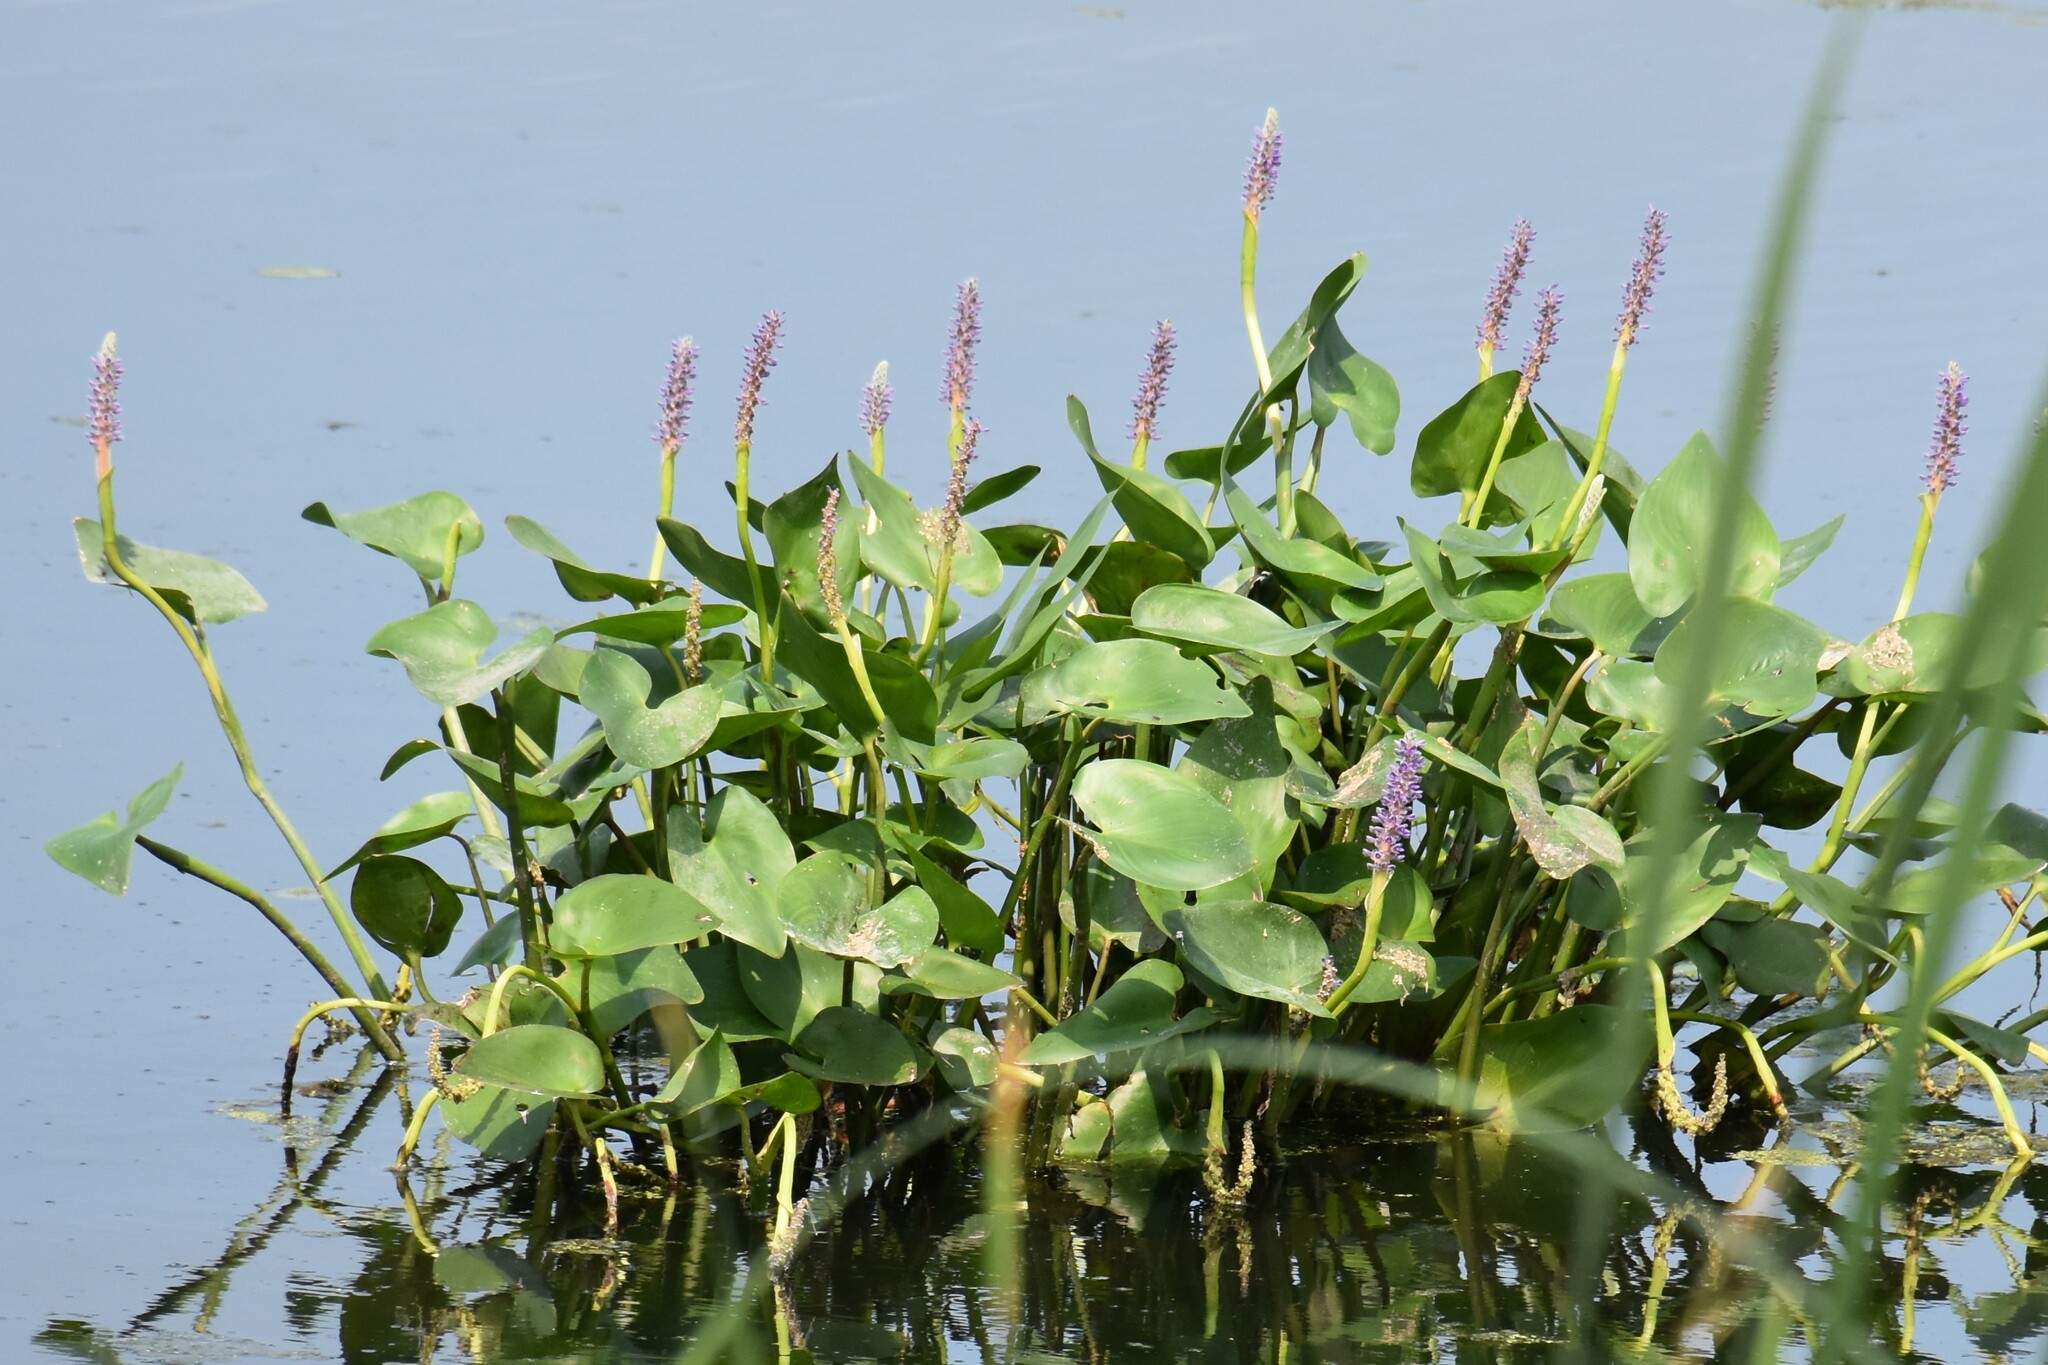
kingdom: Plantae
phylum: Tracheophyta
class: Liliopsida
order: Commelinales
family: Pontederiaceae
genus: Pontederia
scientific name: Pontederia cordata
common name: Pickerelweed
